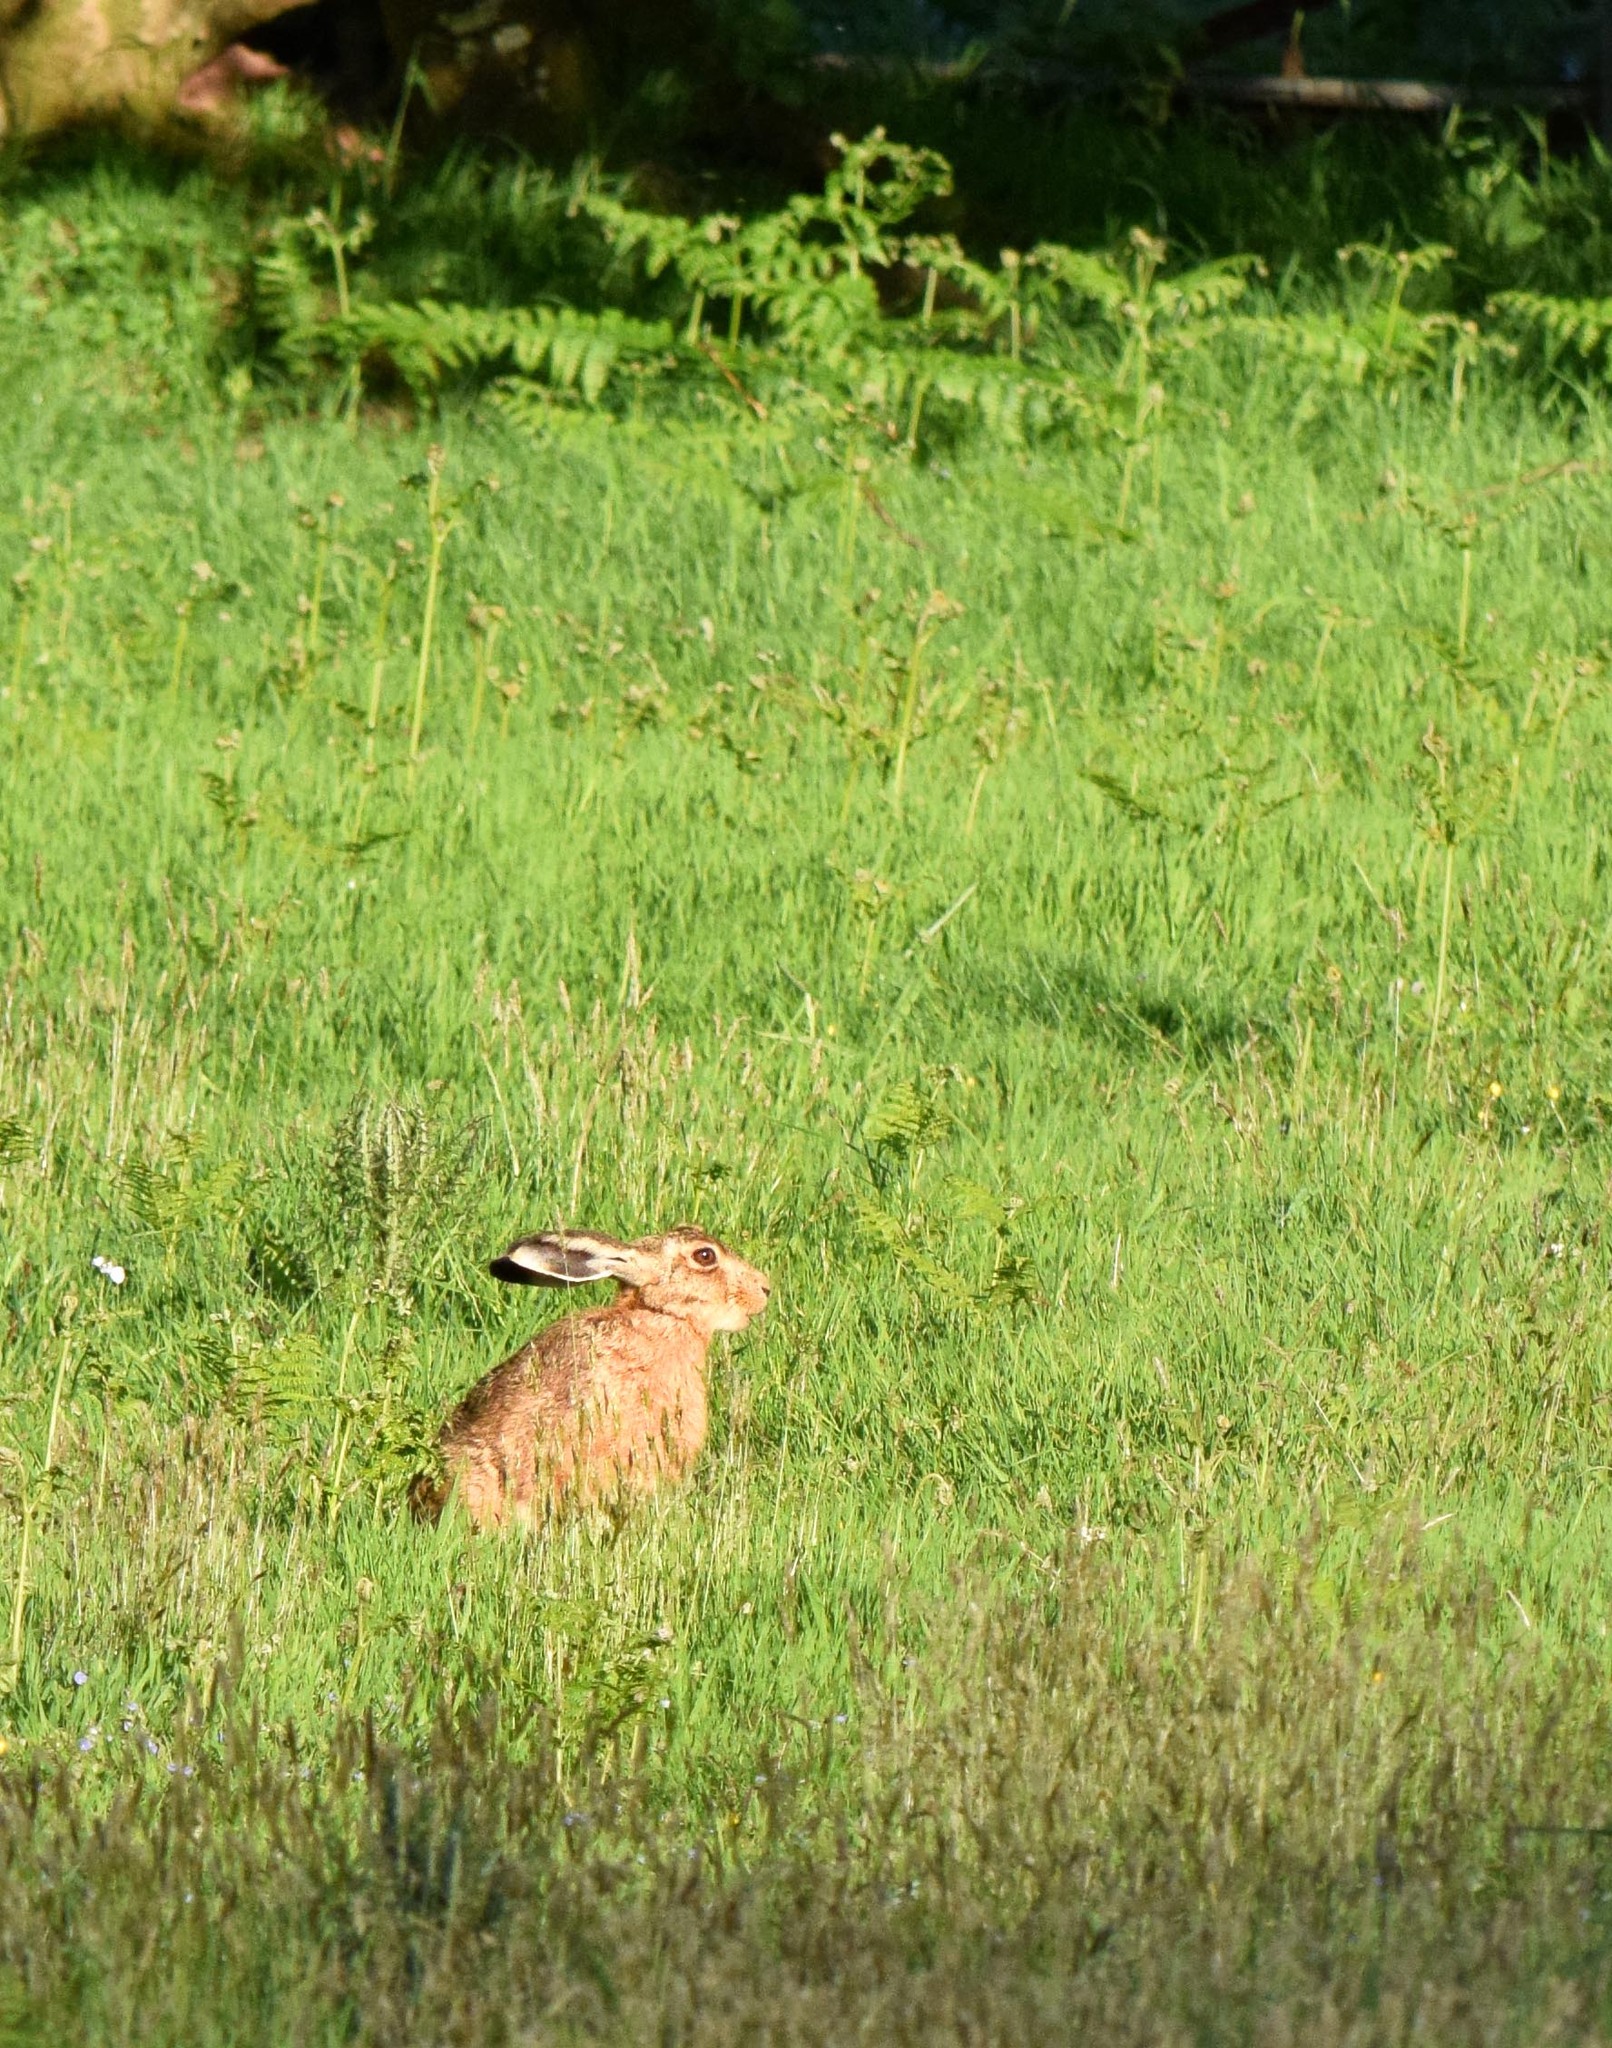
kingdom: Animalia
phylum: Chordata
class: Mammalia
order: Lagomorpha
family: Leporidae
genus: Lepus
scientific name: Lepus europaeus
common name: European hare
